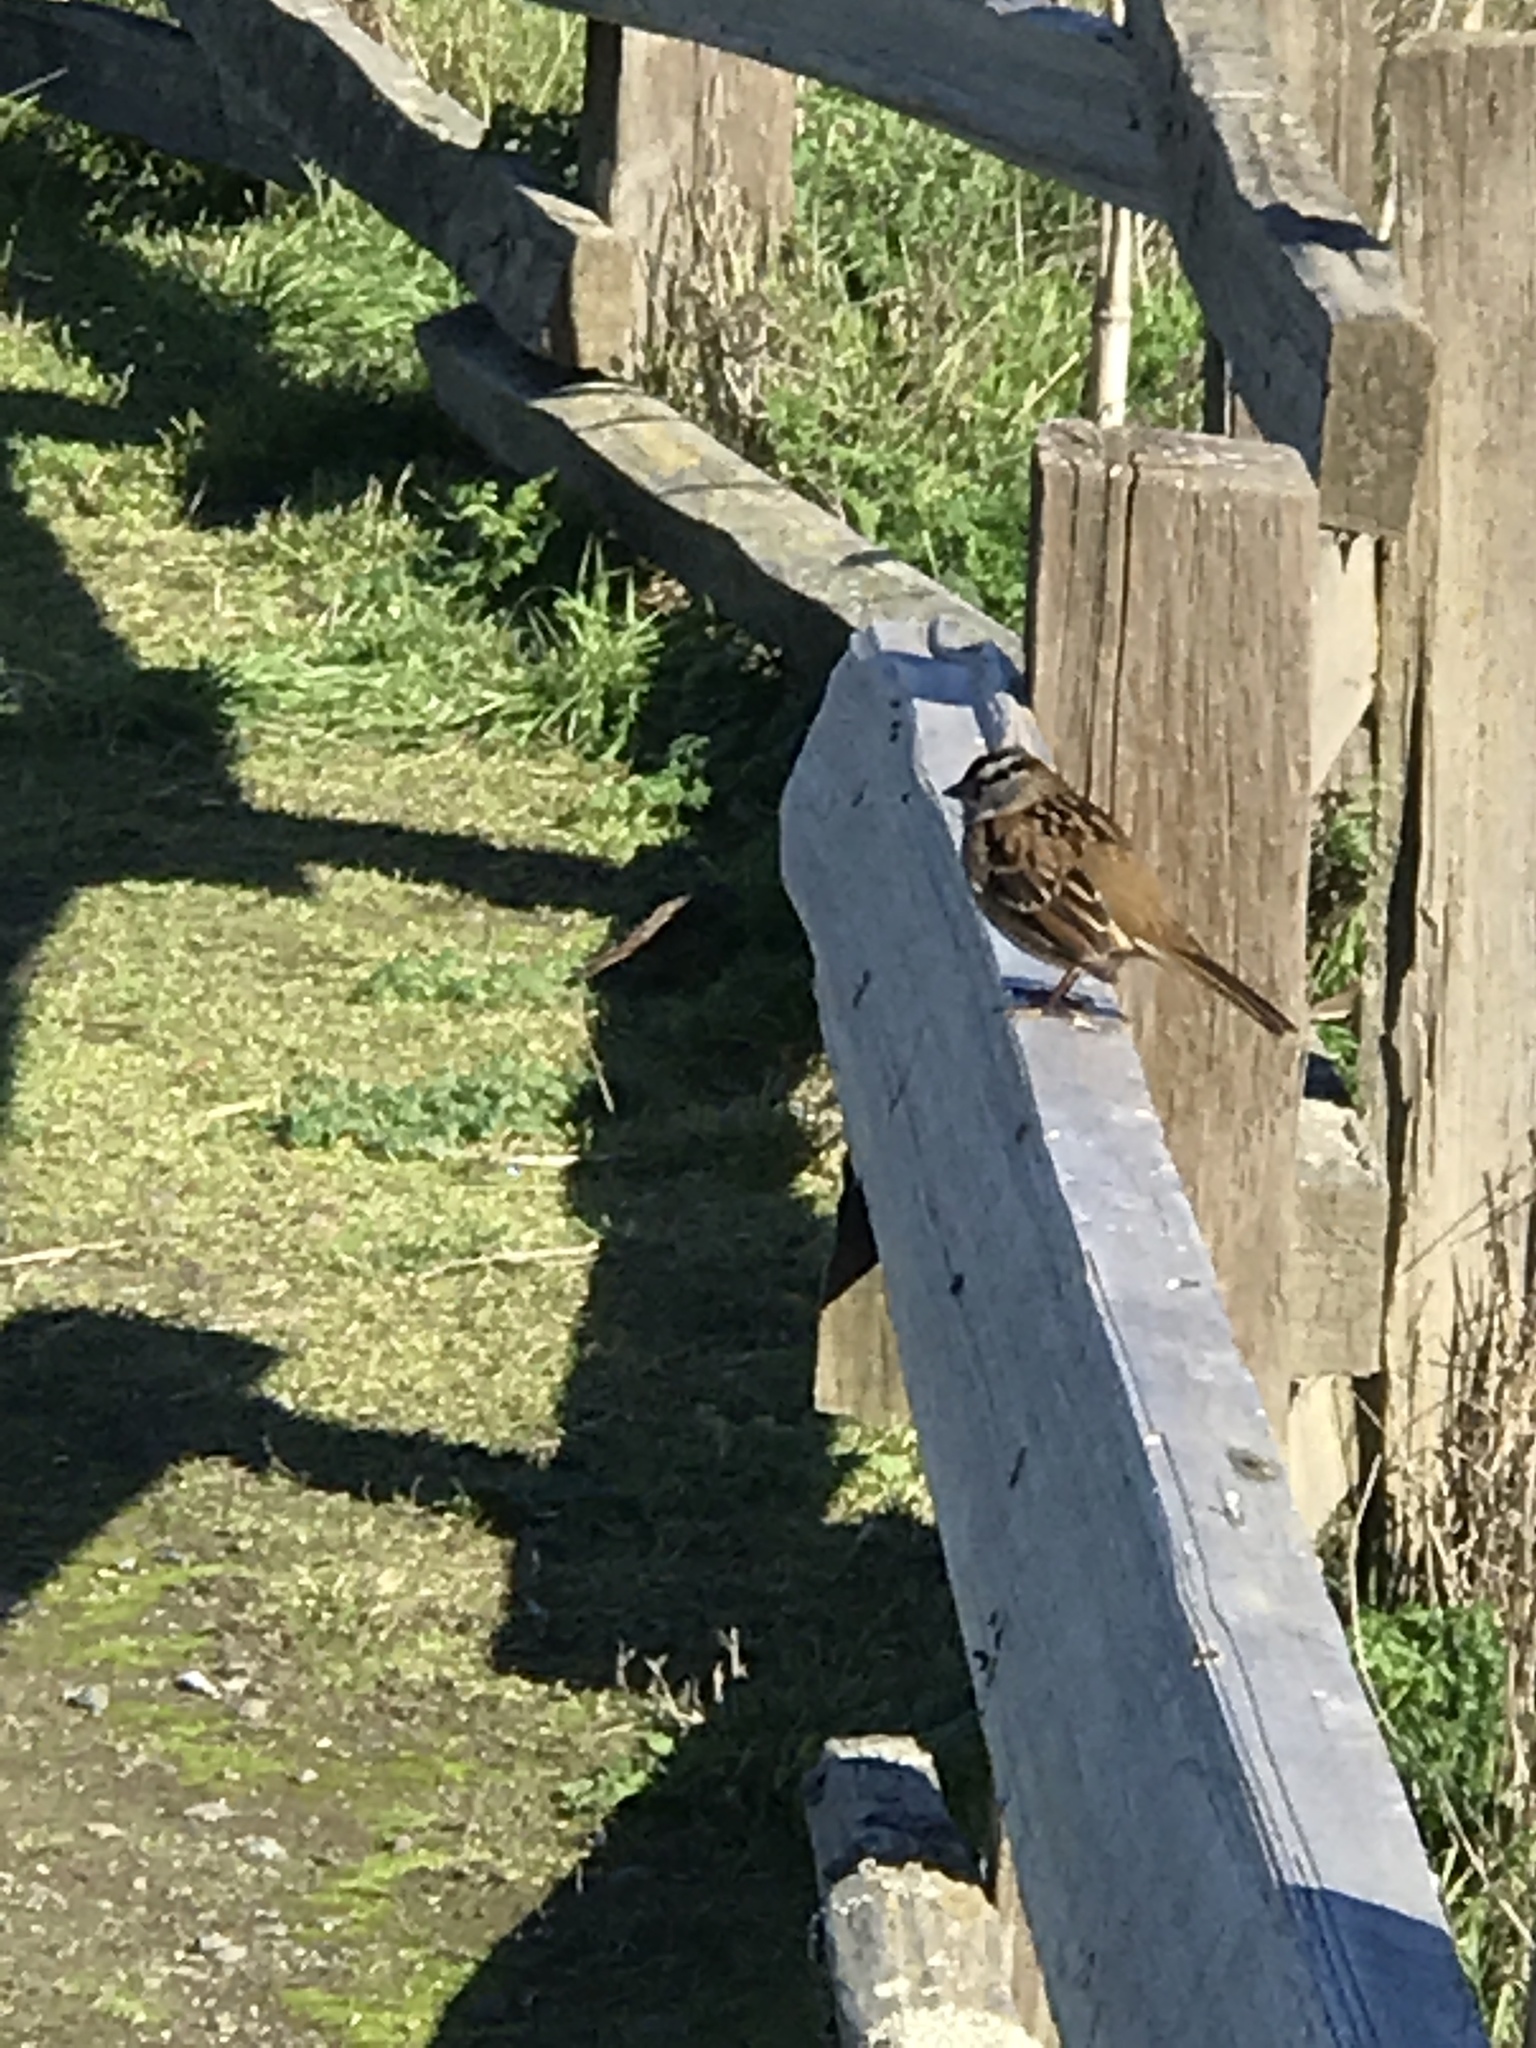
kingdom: Animalia
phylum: Chordata
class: Aves
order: Passeriformes
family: Passerellidae
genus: Zonotrichia
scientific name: Zonotrichia leucophrys
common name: White-crowned sparrow
